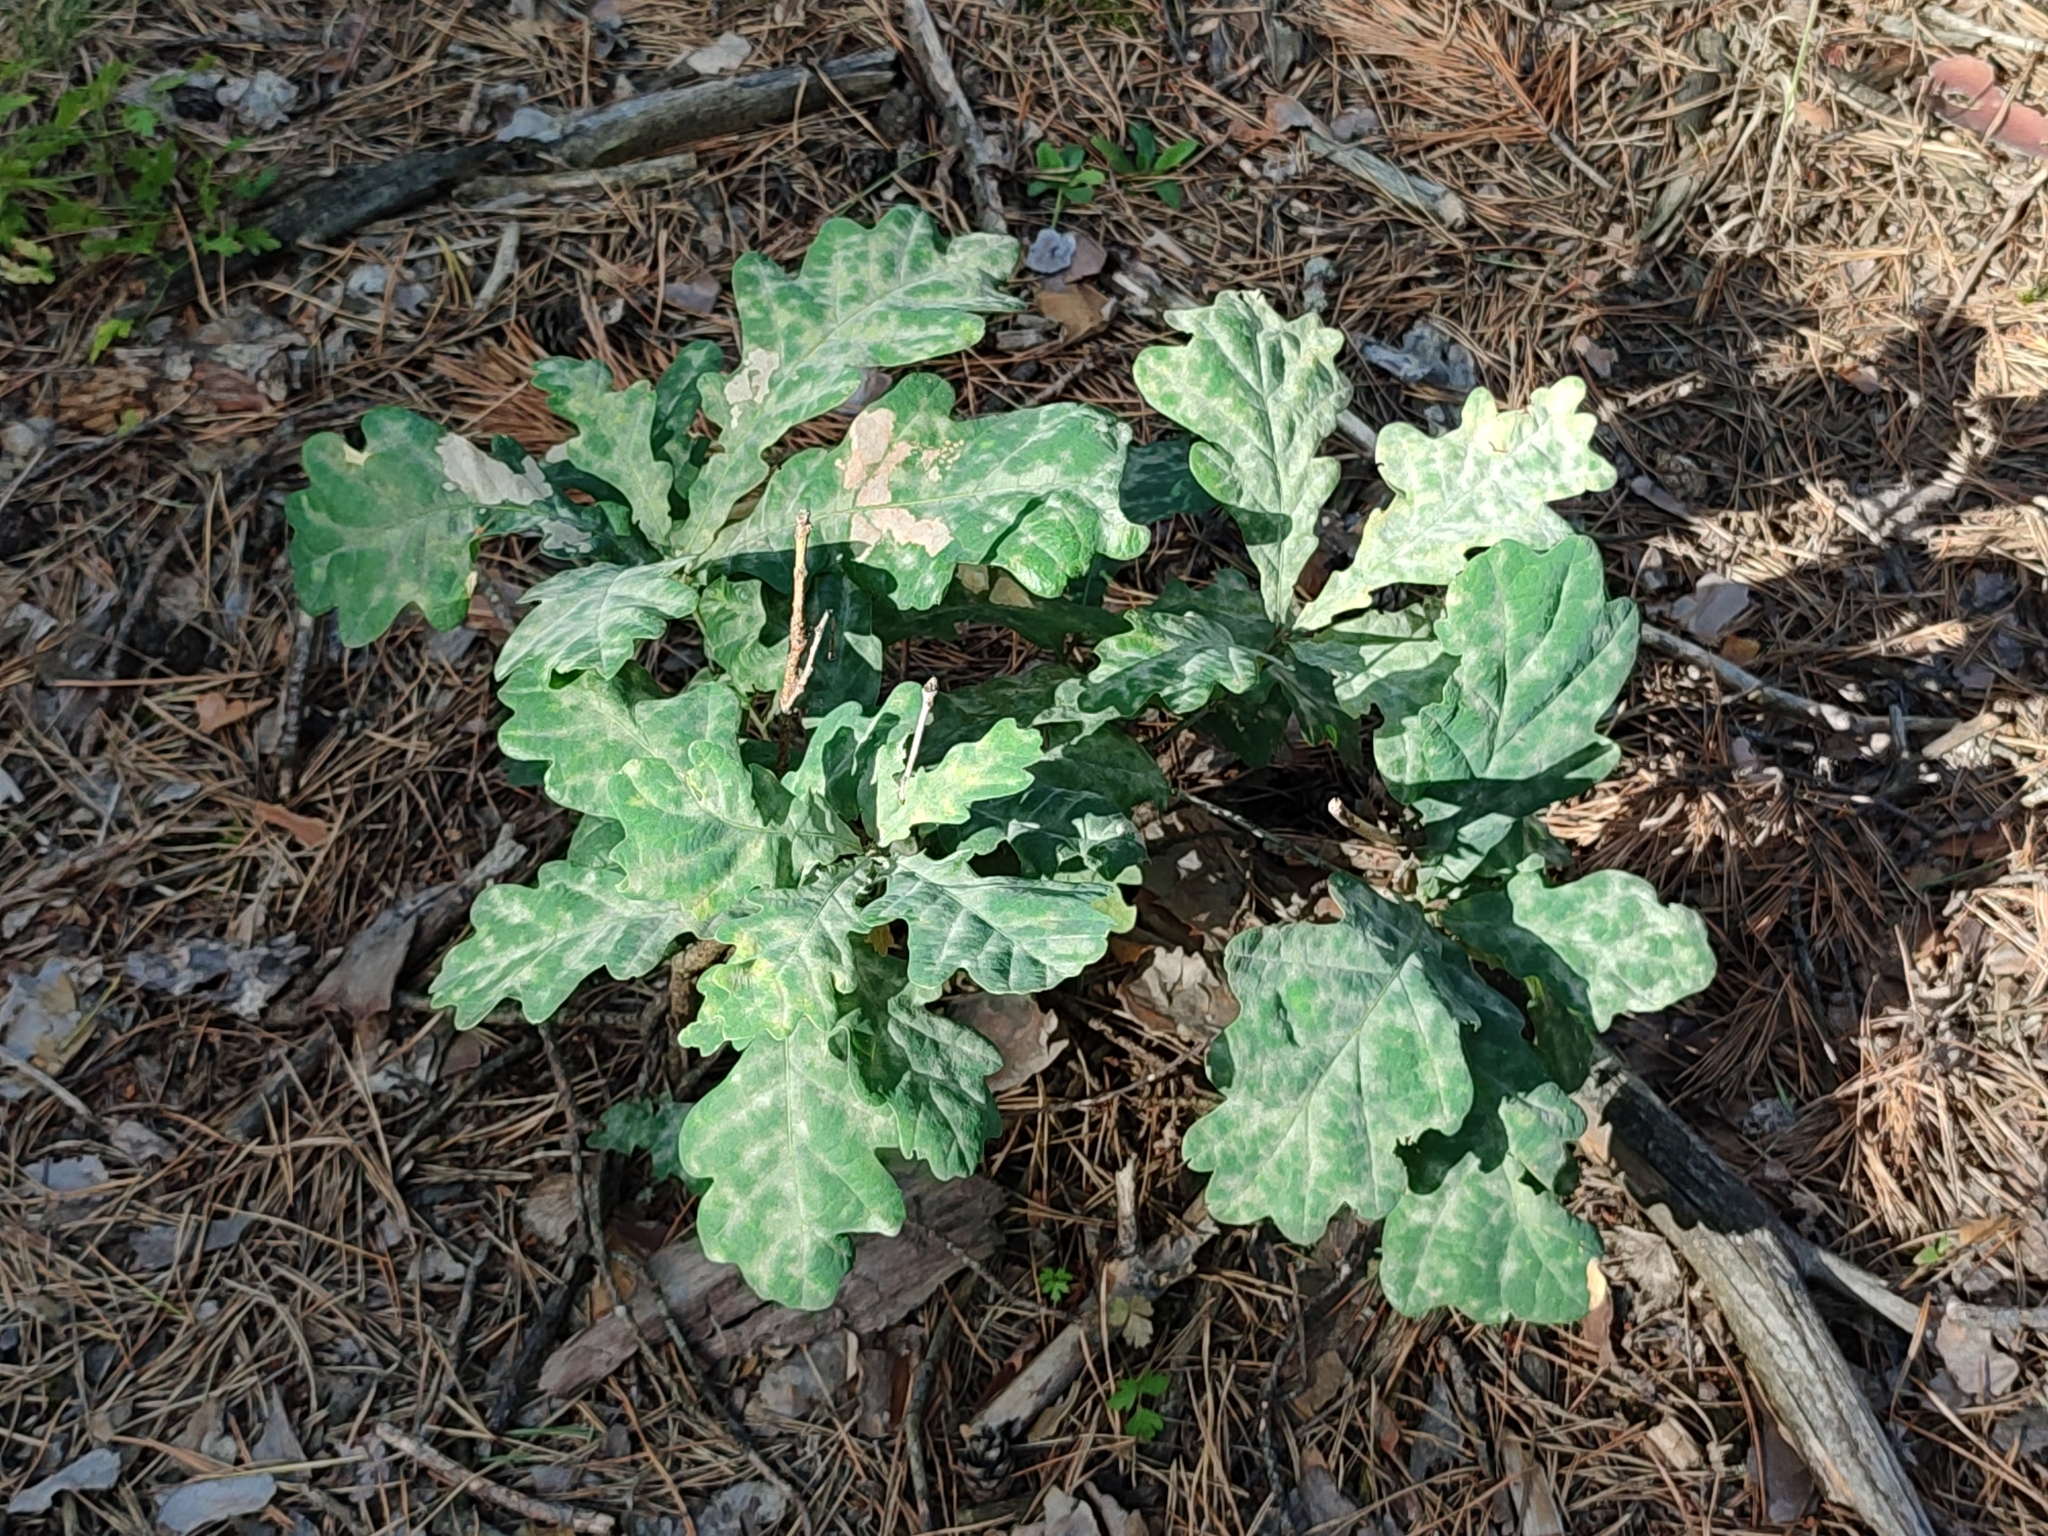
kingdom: Plantae
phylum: Tracheophyta
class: Magnoliopsida
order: Fagales
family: Fagaceae
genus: Quercus
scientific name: Quercus robur
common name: Pedunculate oak
